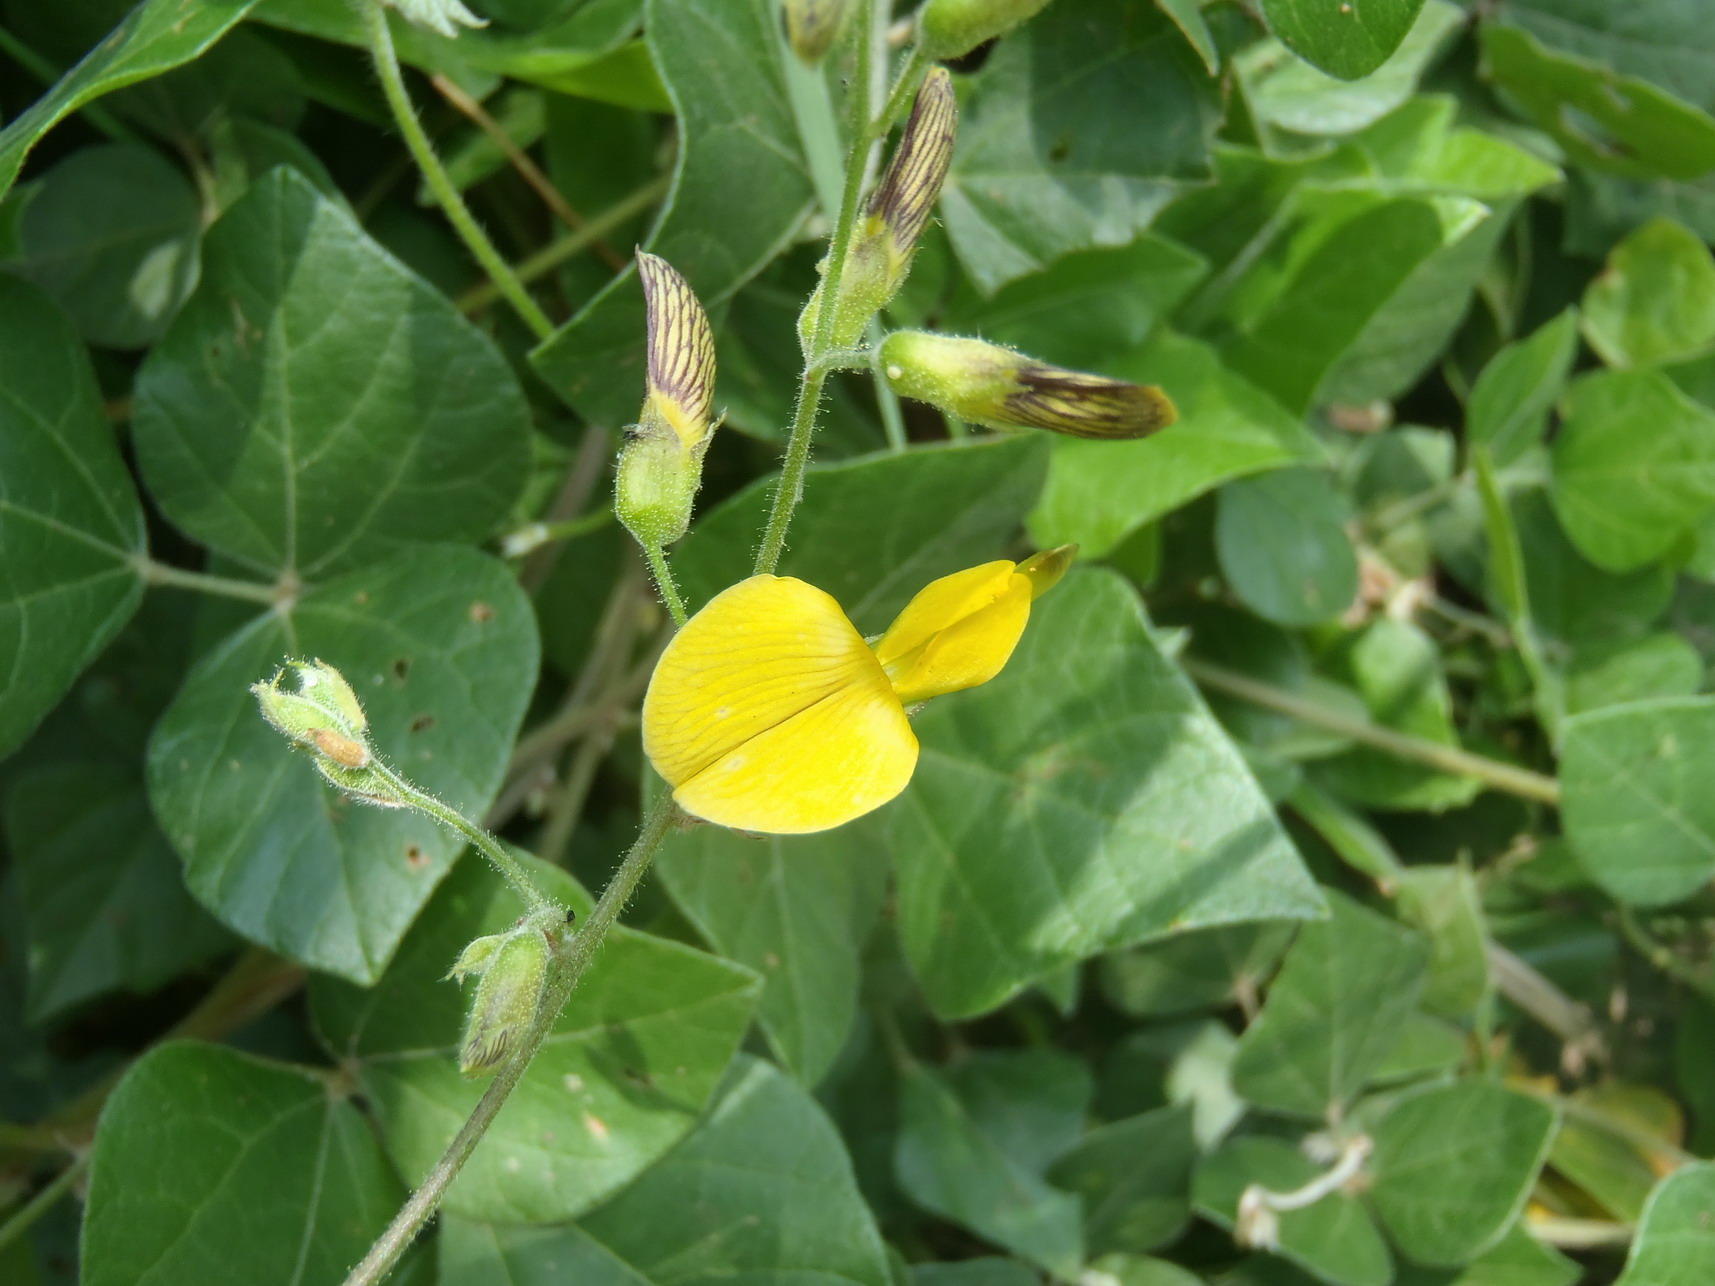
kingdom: Plantae
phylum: Tracheophyta
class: Magnoliopsida
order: Fabales
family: Fabaceae
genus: Rhynchosia
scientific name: Rhynchosia caribaea
